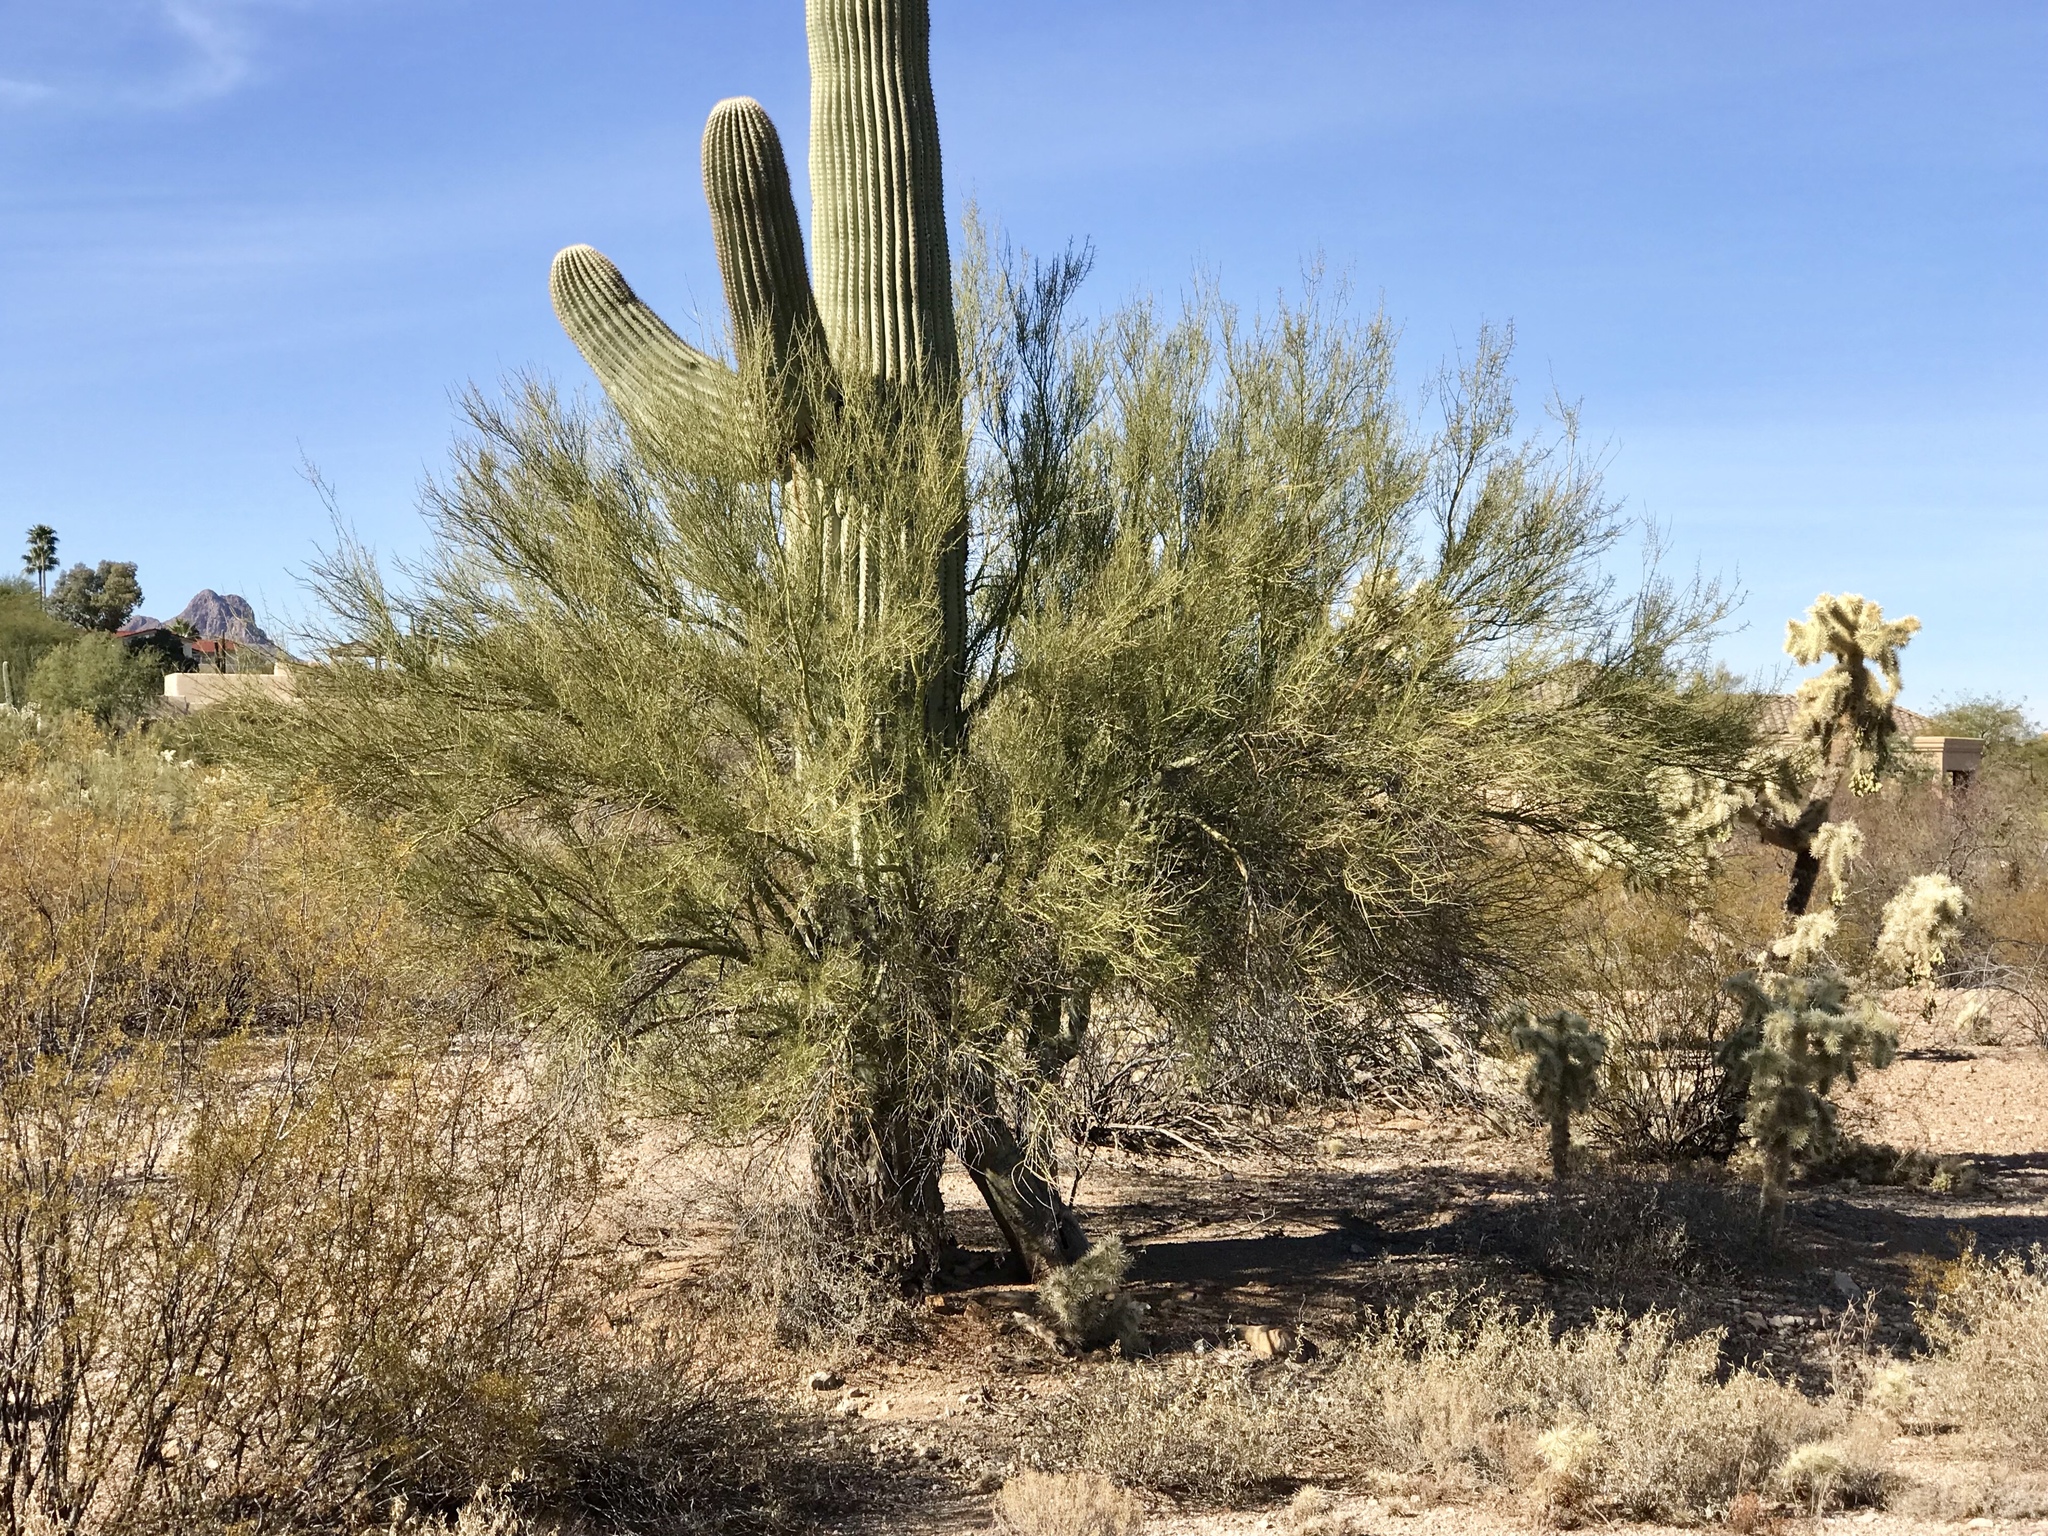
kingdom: Plantae
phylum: Tracheophyta
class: Magnoliopsida
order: Fabales
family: Fabaceae
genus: Parkinsonia
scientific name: Parkinsonia microphylla
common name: Yellow paloverde
